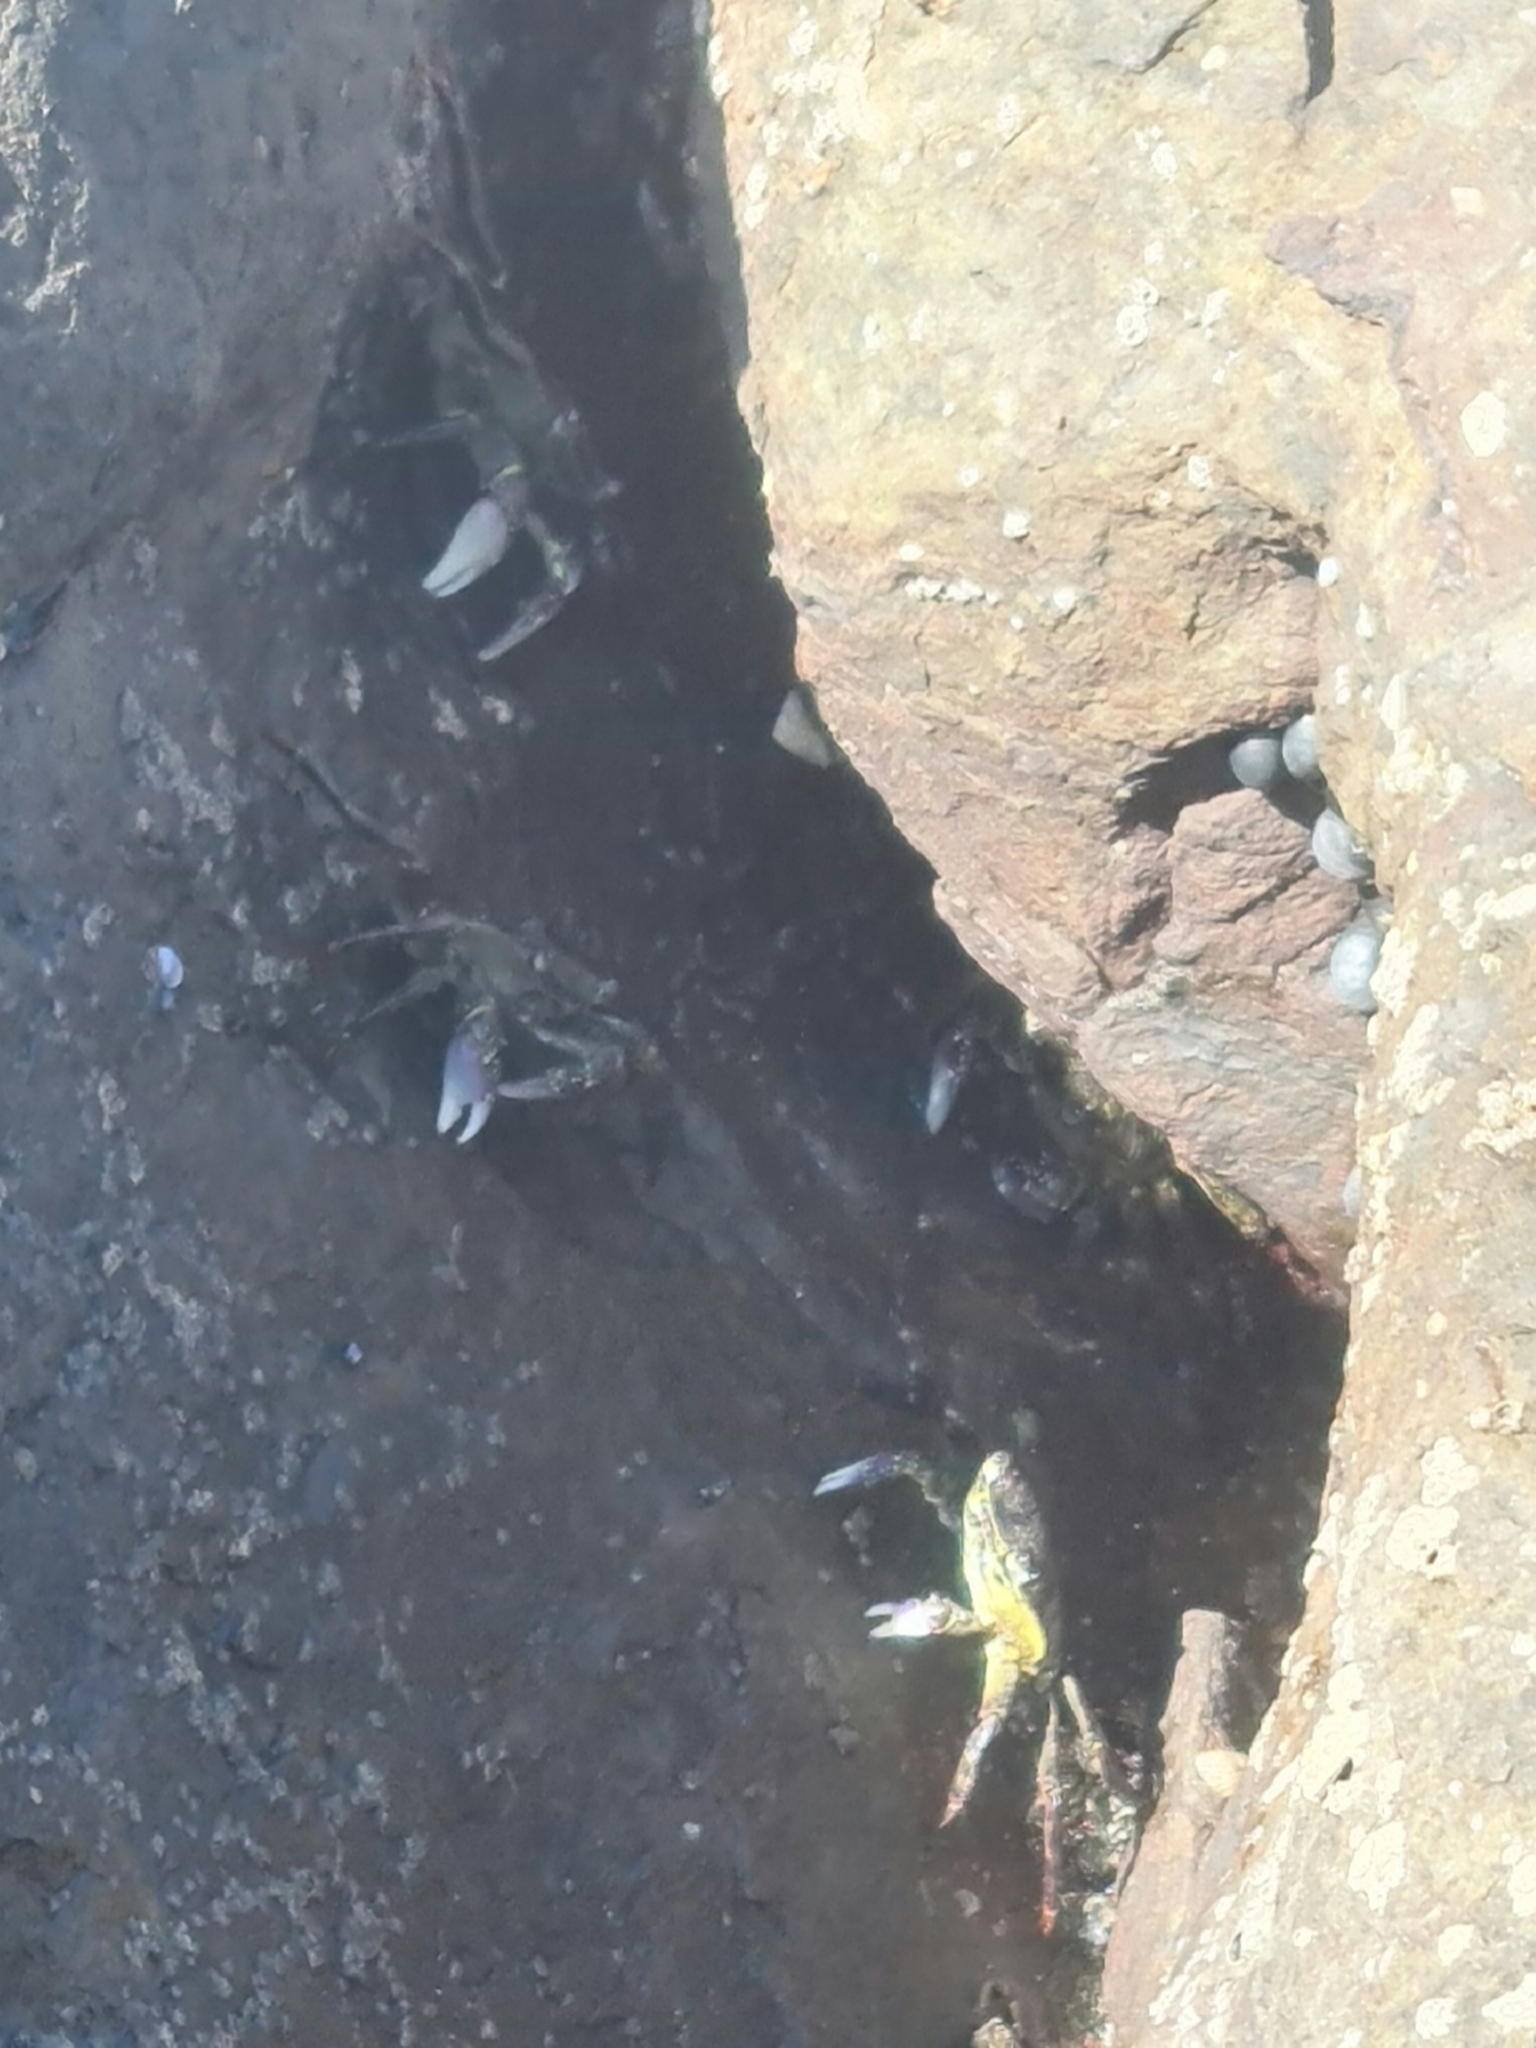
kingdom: Animalia
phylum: Arthropoda
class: Malacostraca
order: Decapoda
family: Grapsidae
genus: Leptograpsus
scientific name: Leptograpsus variegatus
